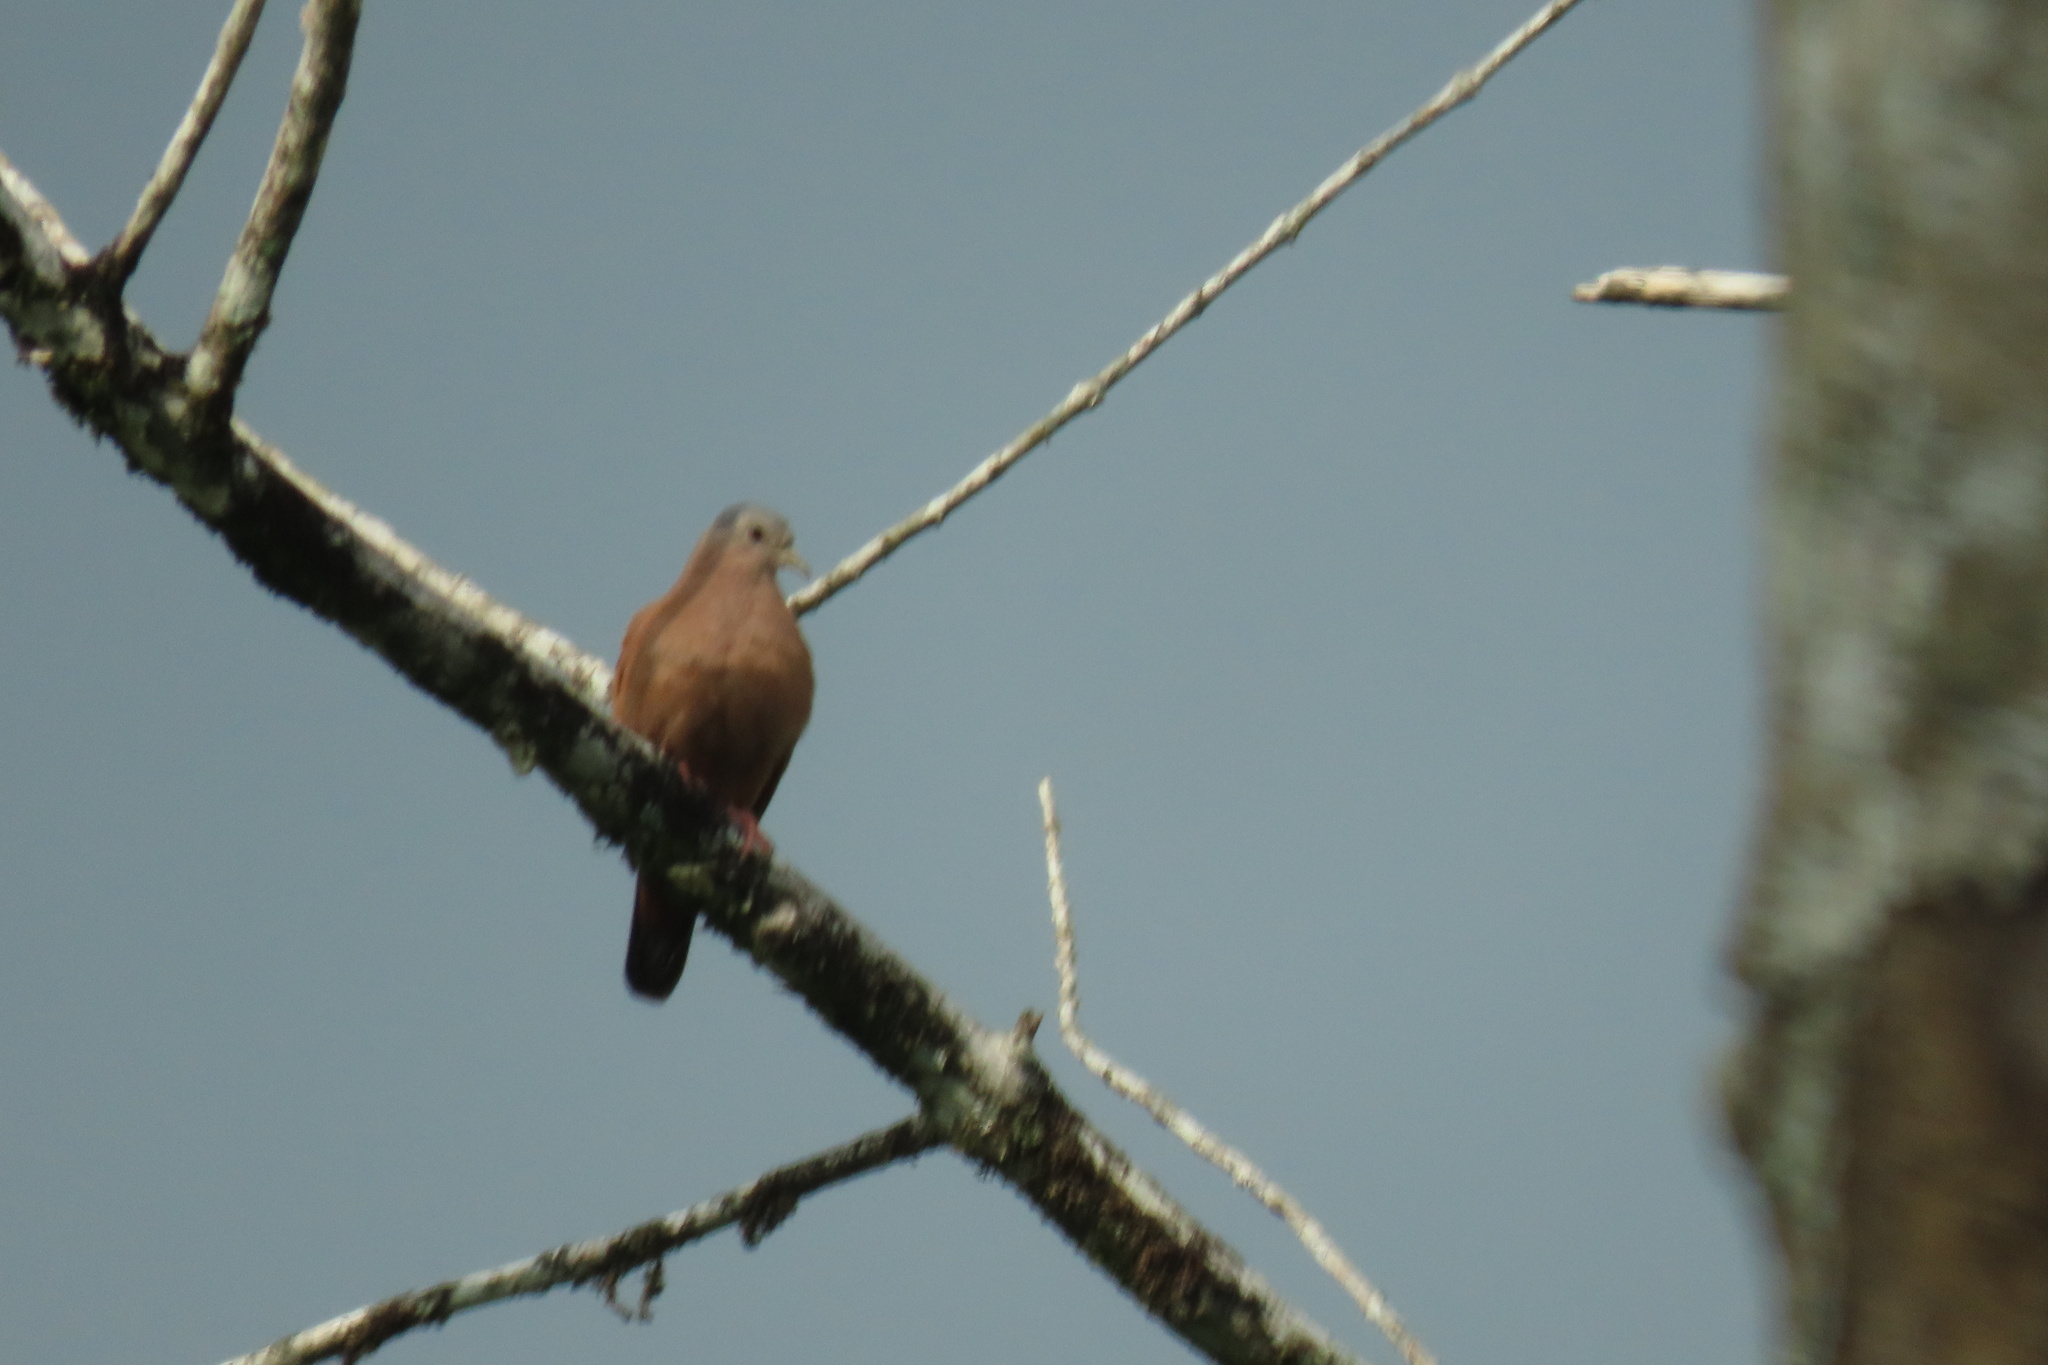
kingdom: Animalia
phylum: Chordata
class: Aves
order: Columbiformes
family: Columbidae
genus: Columbina
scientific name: Columbina talpacoti
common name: Ruddy ground dove
